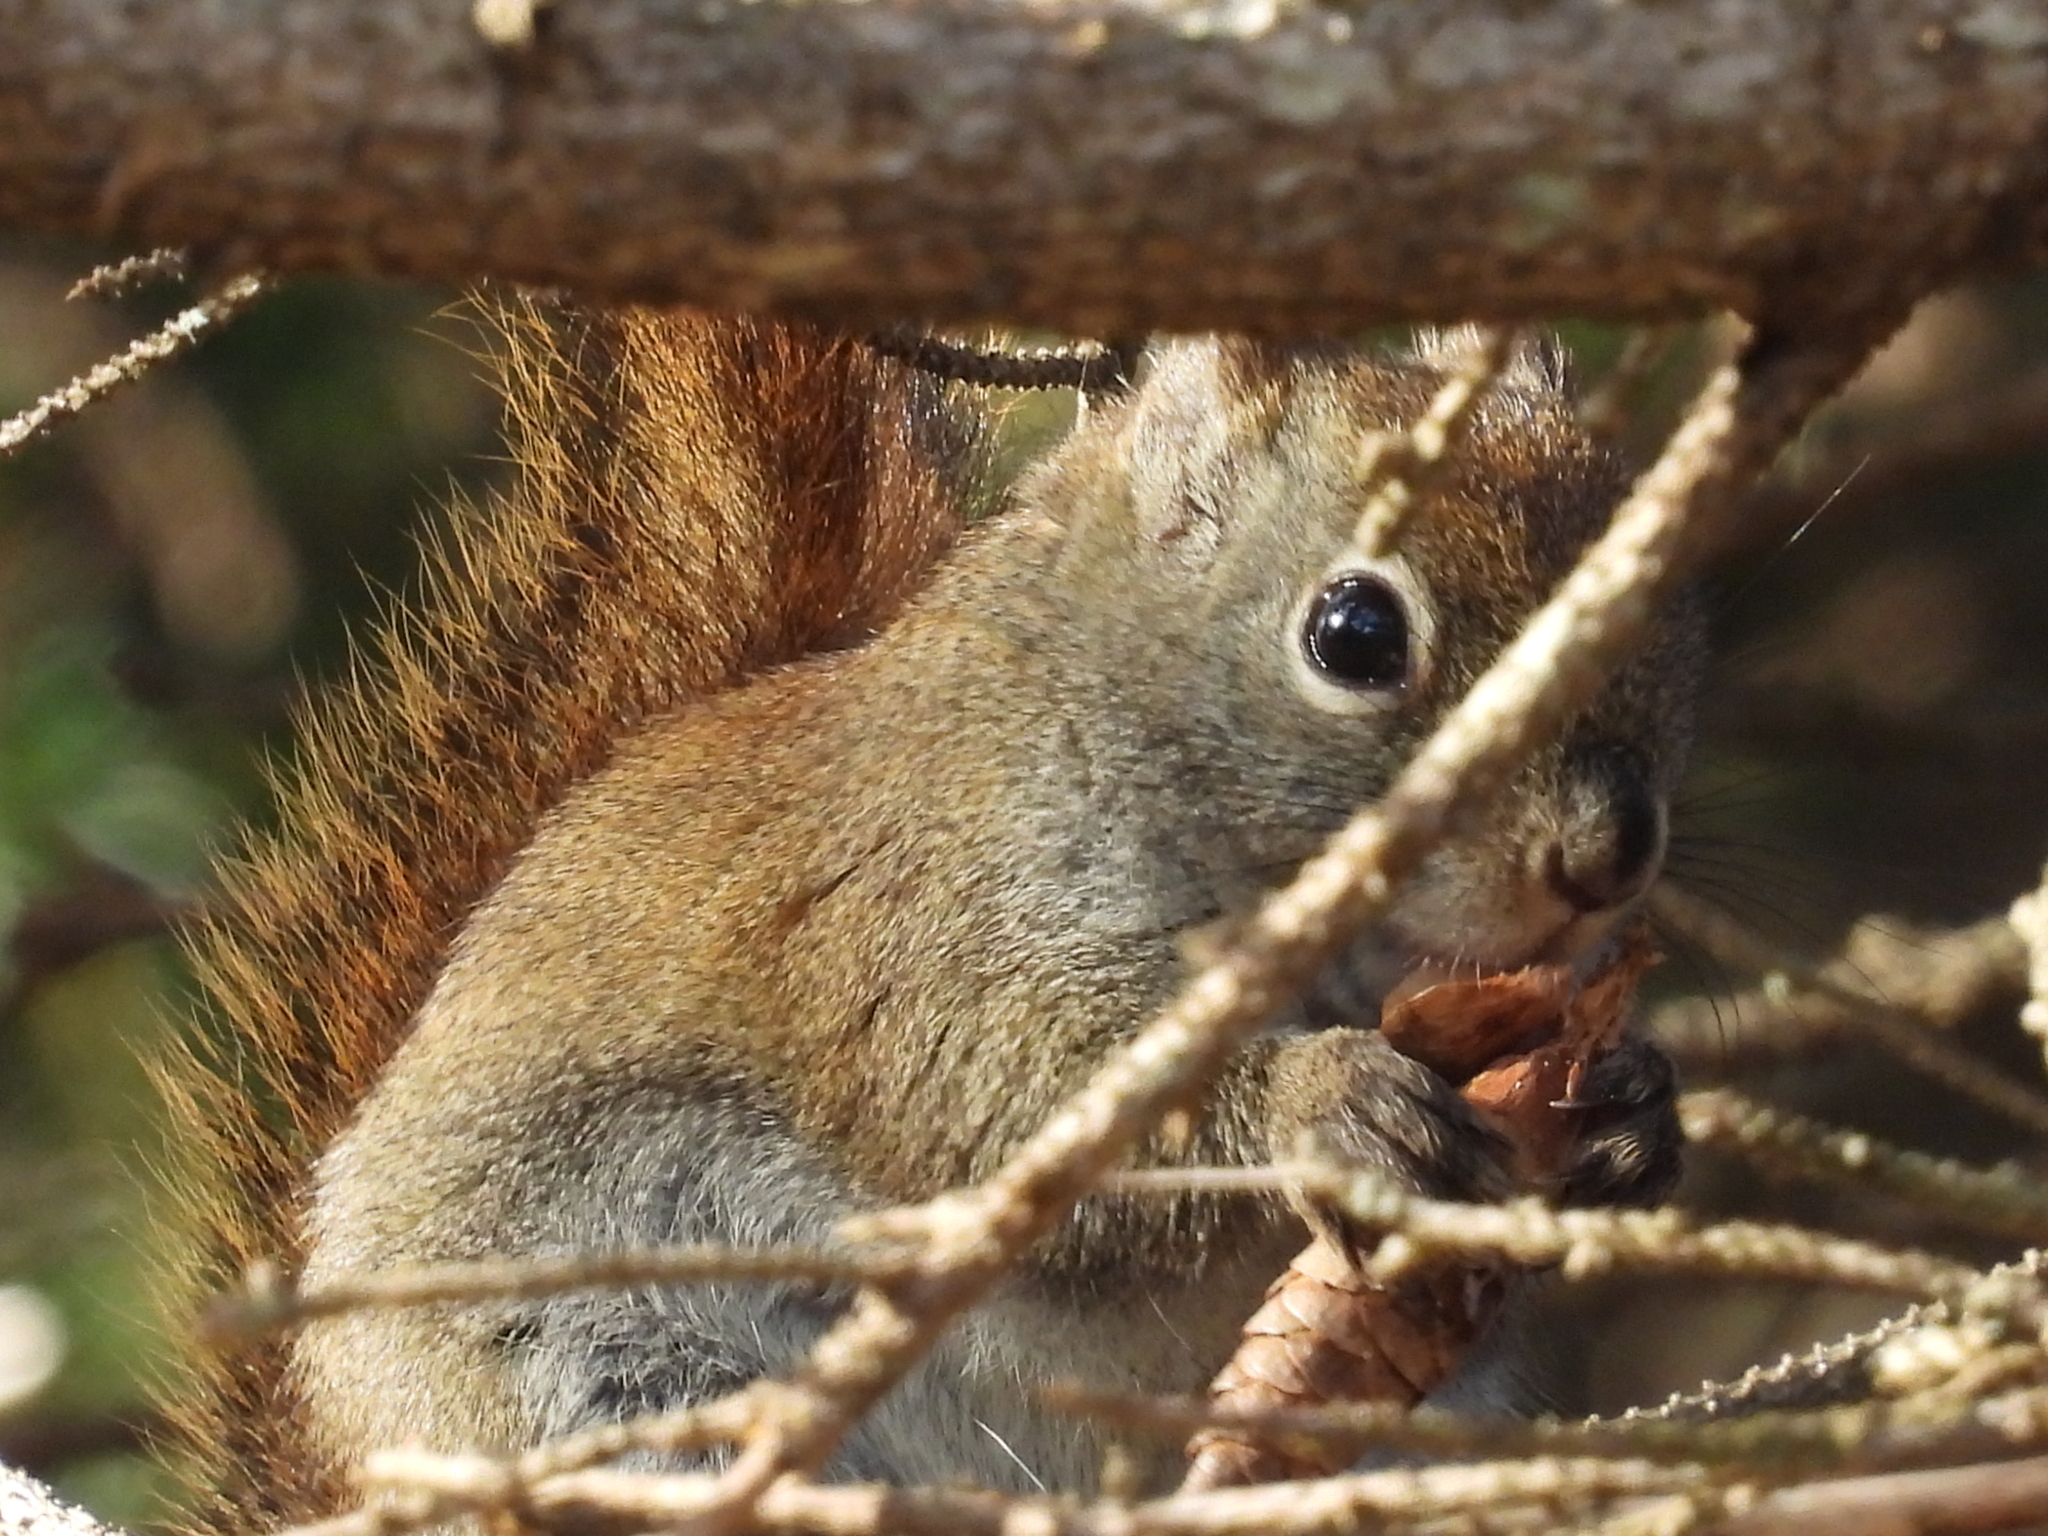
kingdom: Animalia
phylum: Chordata
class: Mammalia
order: Rodentia
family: Sciuridae
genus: Tamiasciurus
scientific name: Tamiasciurus hudsonicus
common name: Red squirrel
